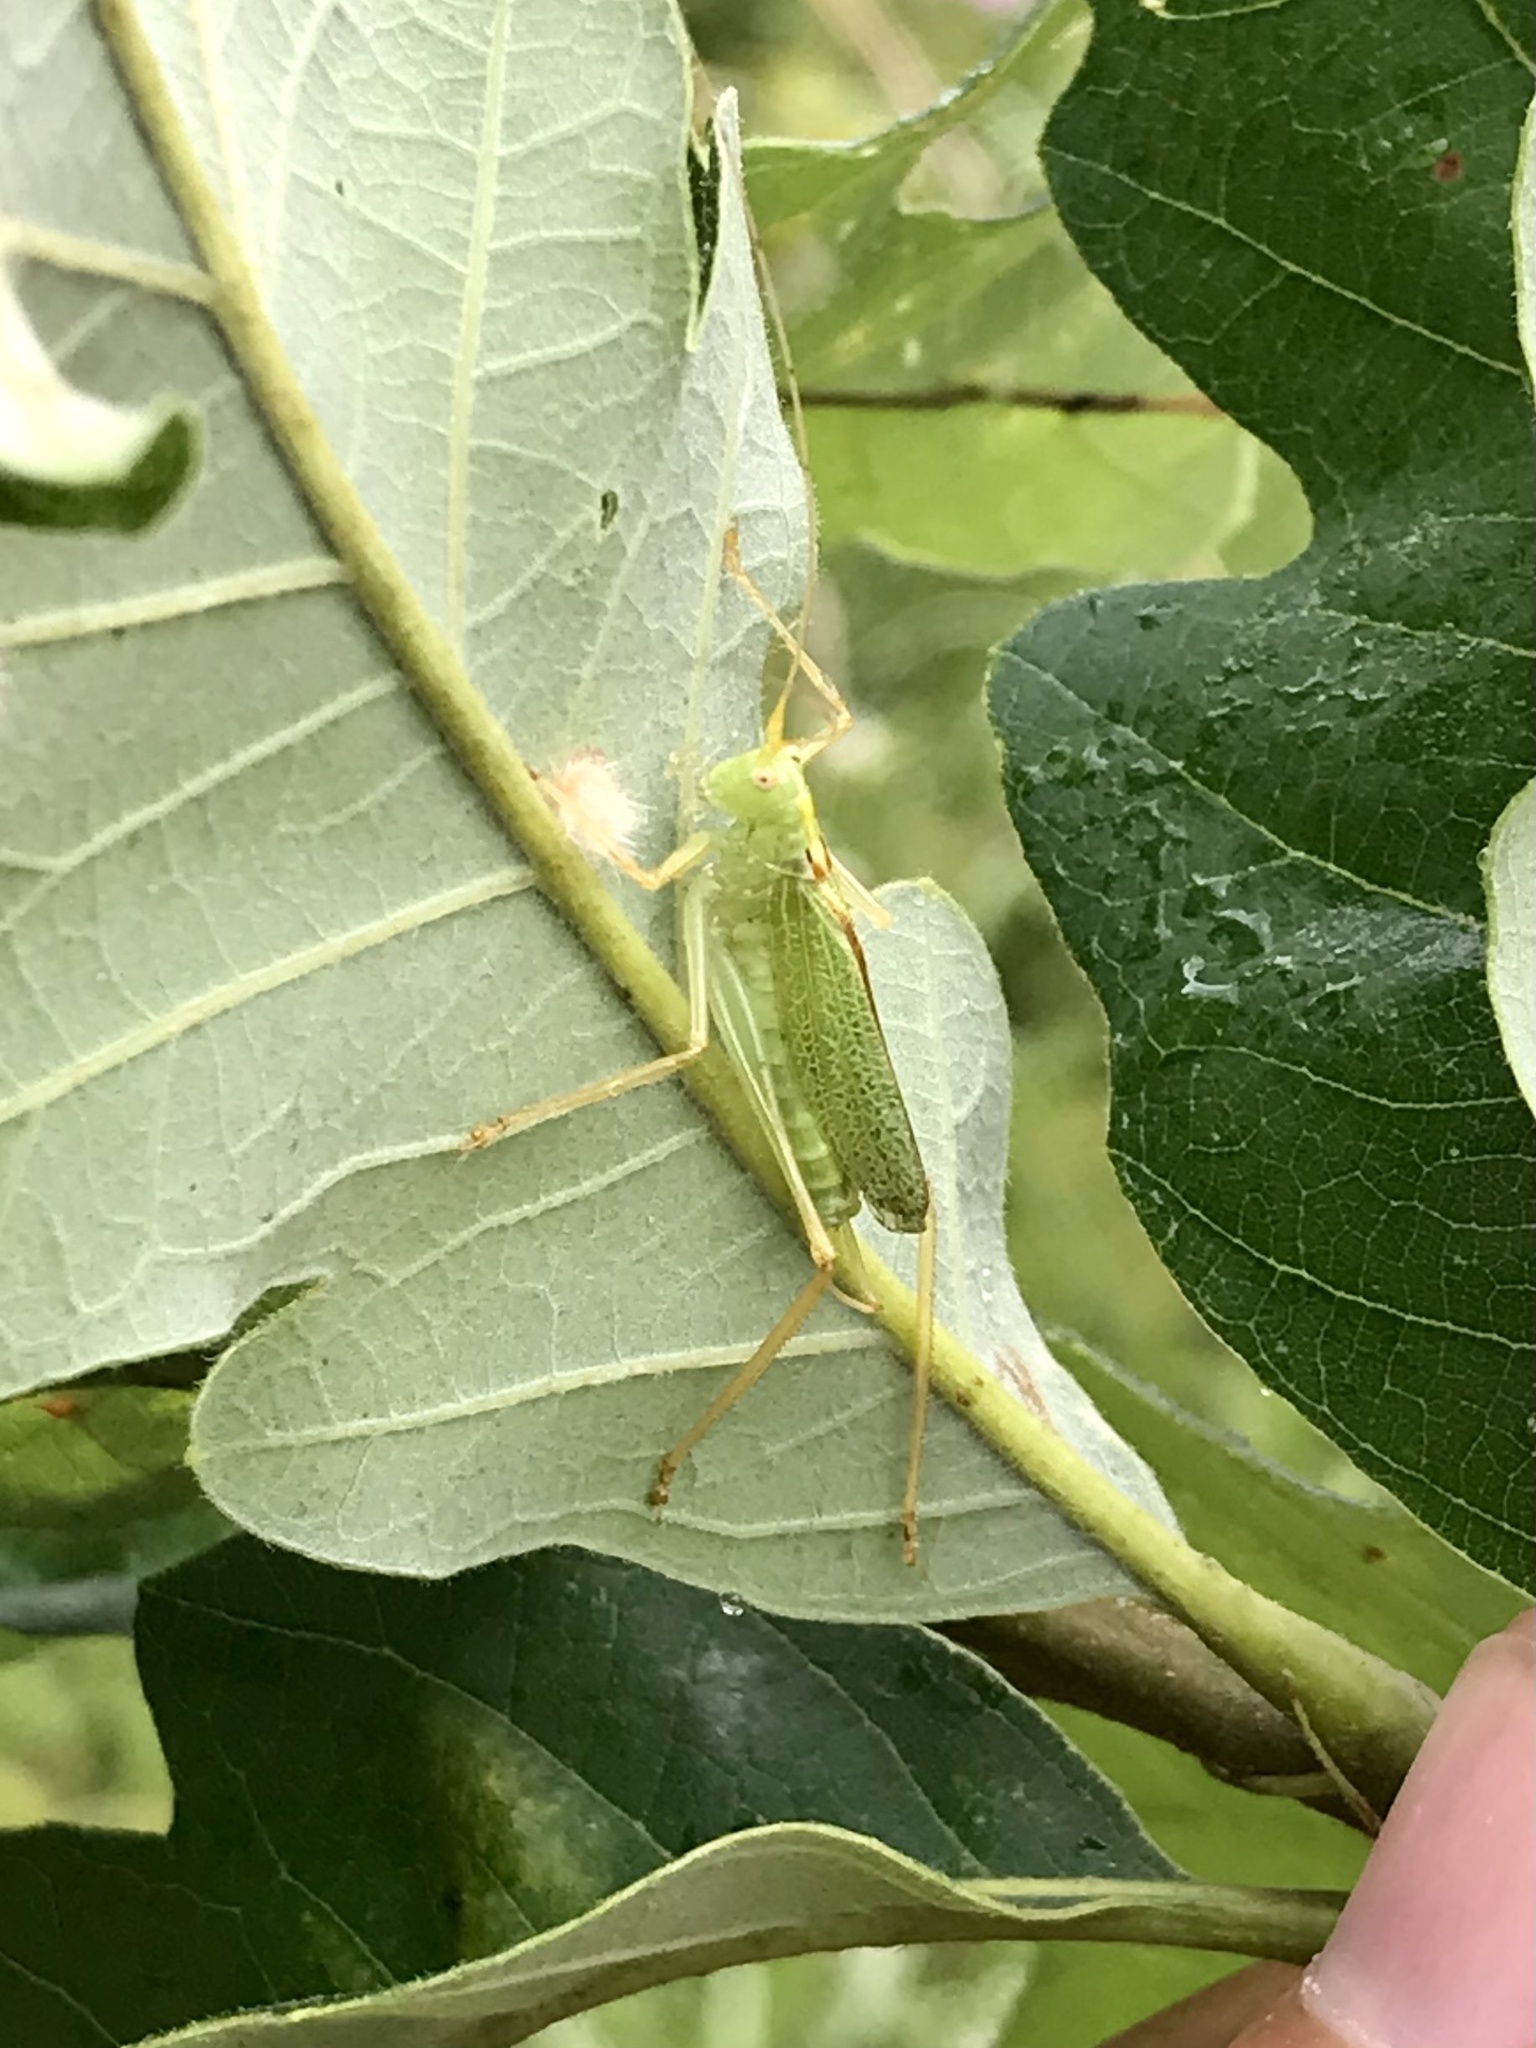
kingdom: Animalia
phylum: Arthropoda
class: Insecta
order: Orthoptera
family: Tettigoniidae
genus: Meconema
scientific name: Meconema thalassinum
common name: Oak bush-cricket
